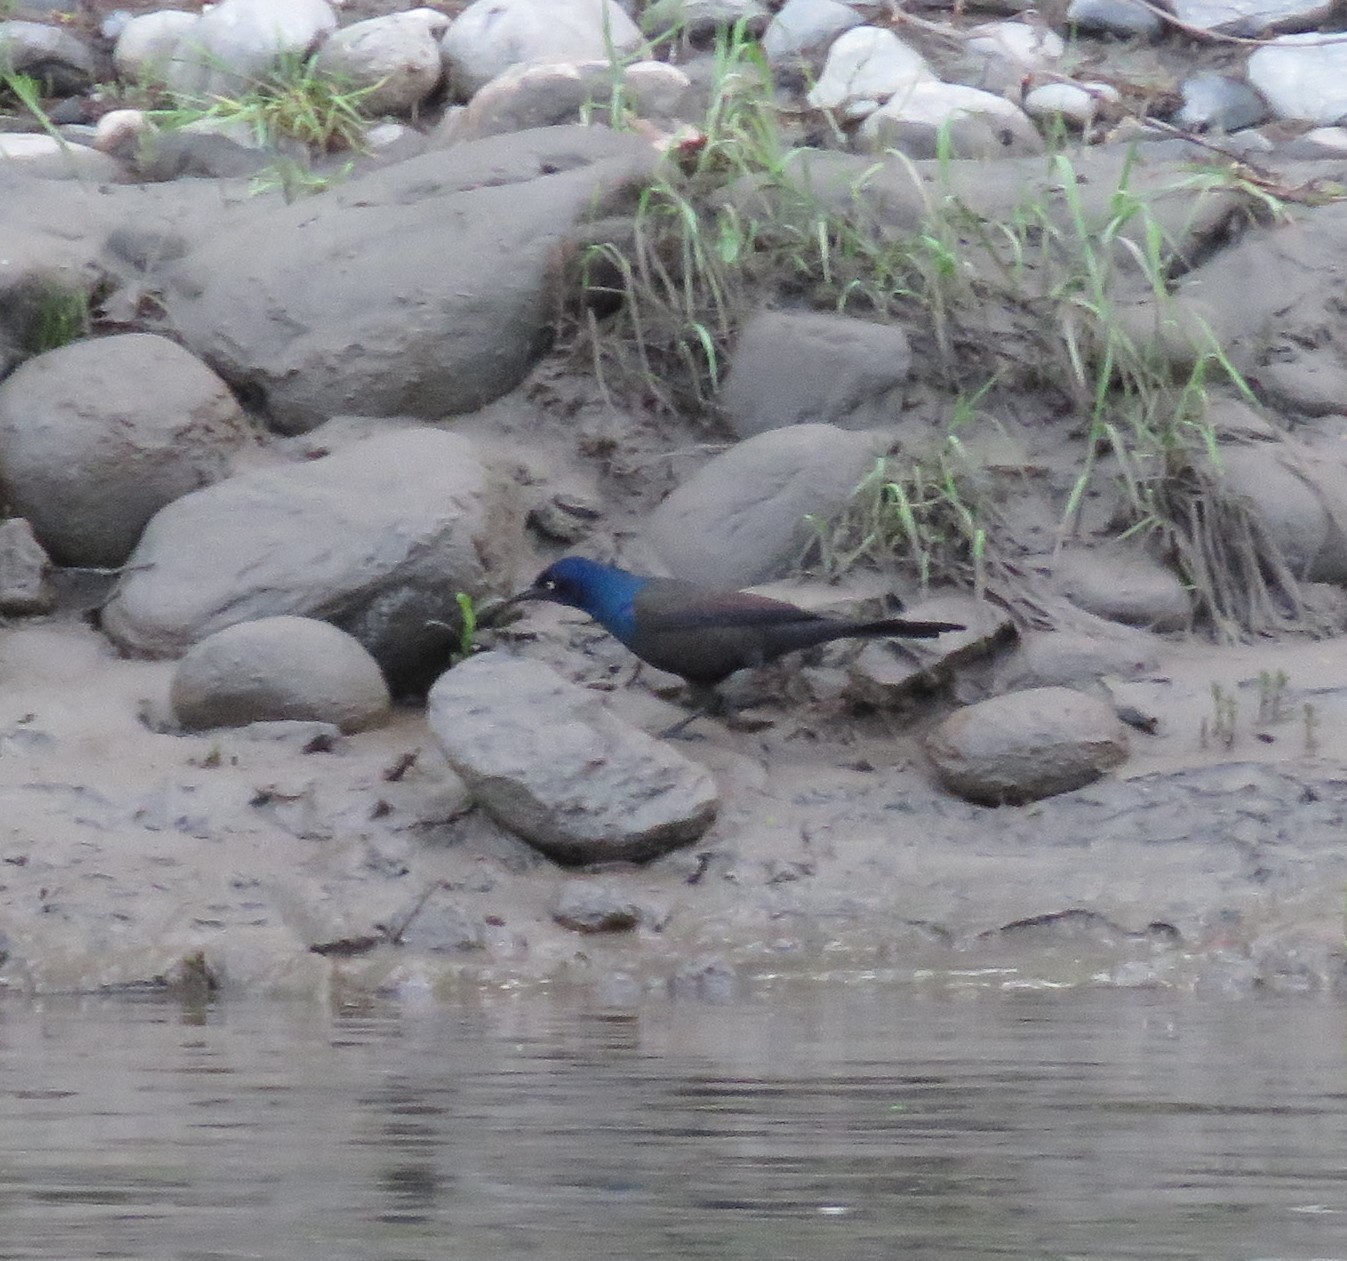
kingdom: Animalia
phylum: Chordata
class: Aves
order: Passeriformes
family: Icteridae
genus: Quiscalus
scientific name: Quiscalus quiscula
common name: Common grackle
